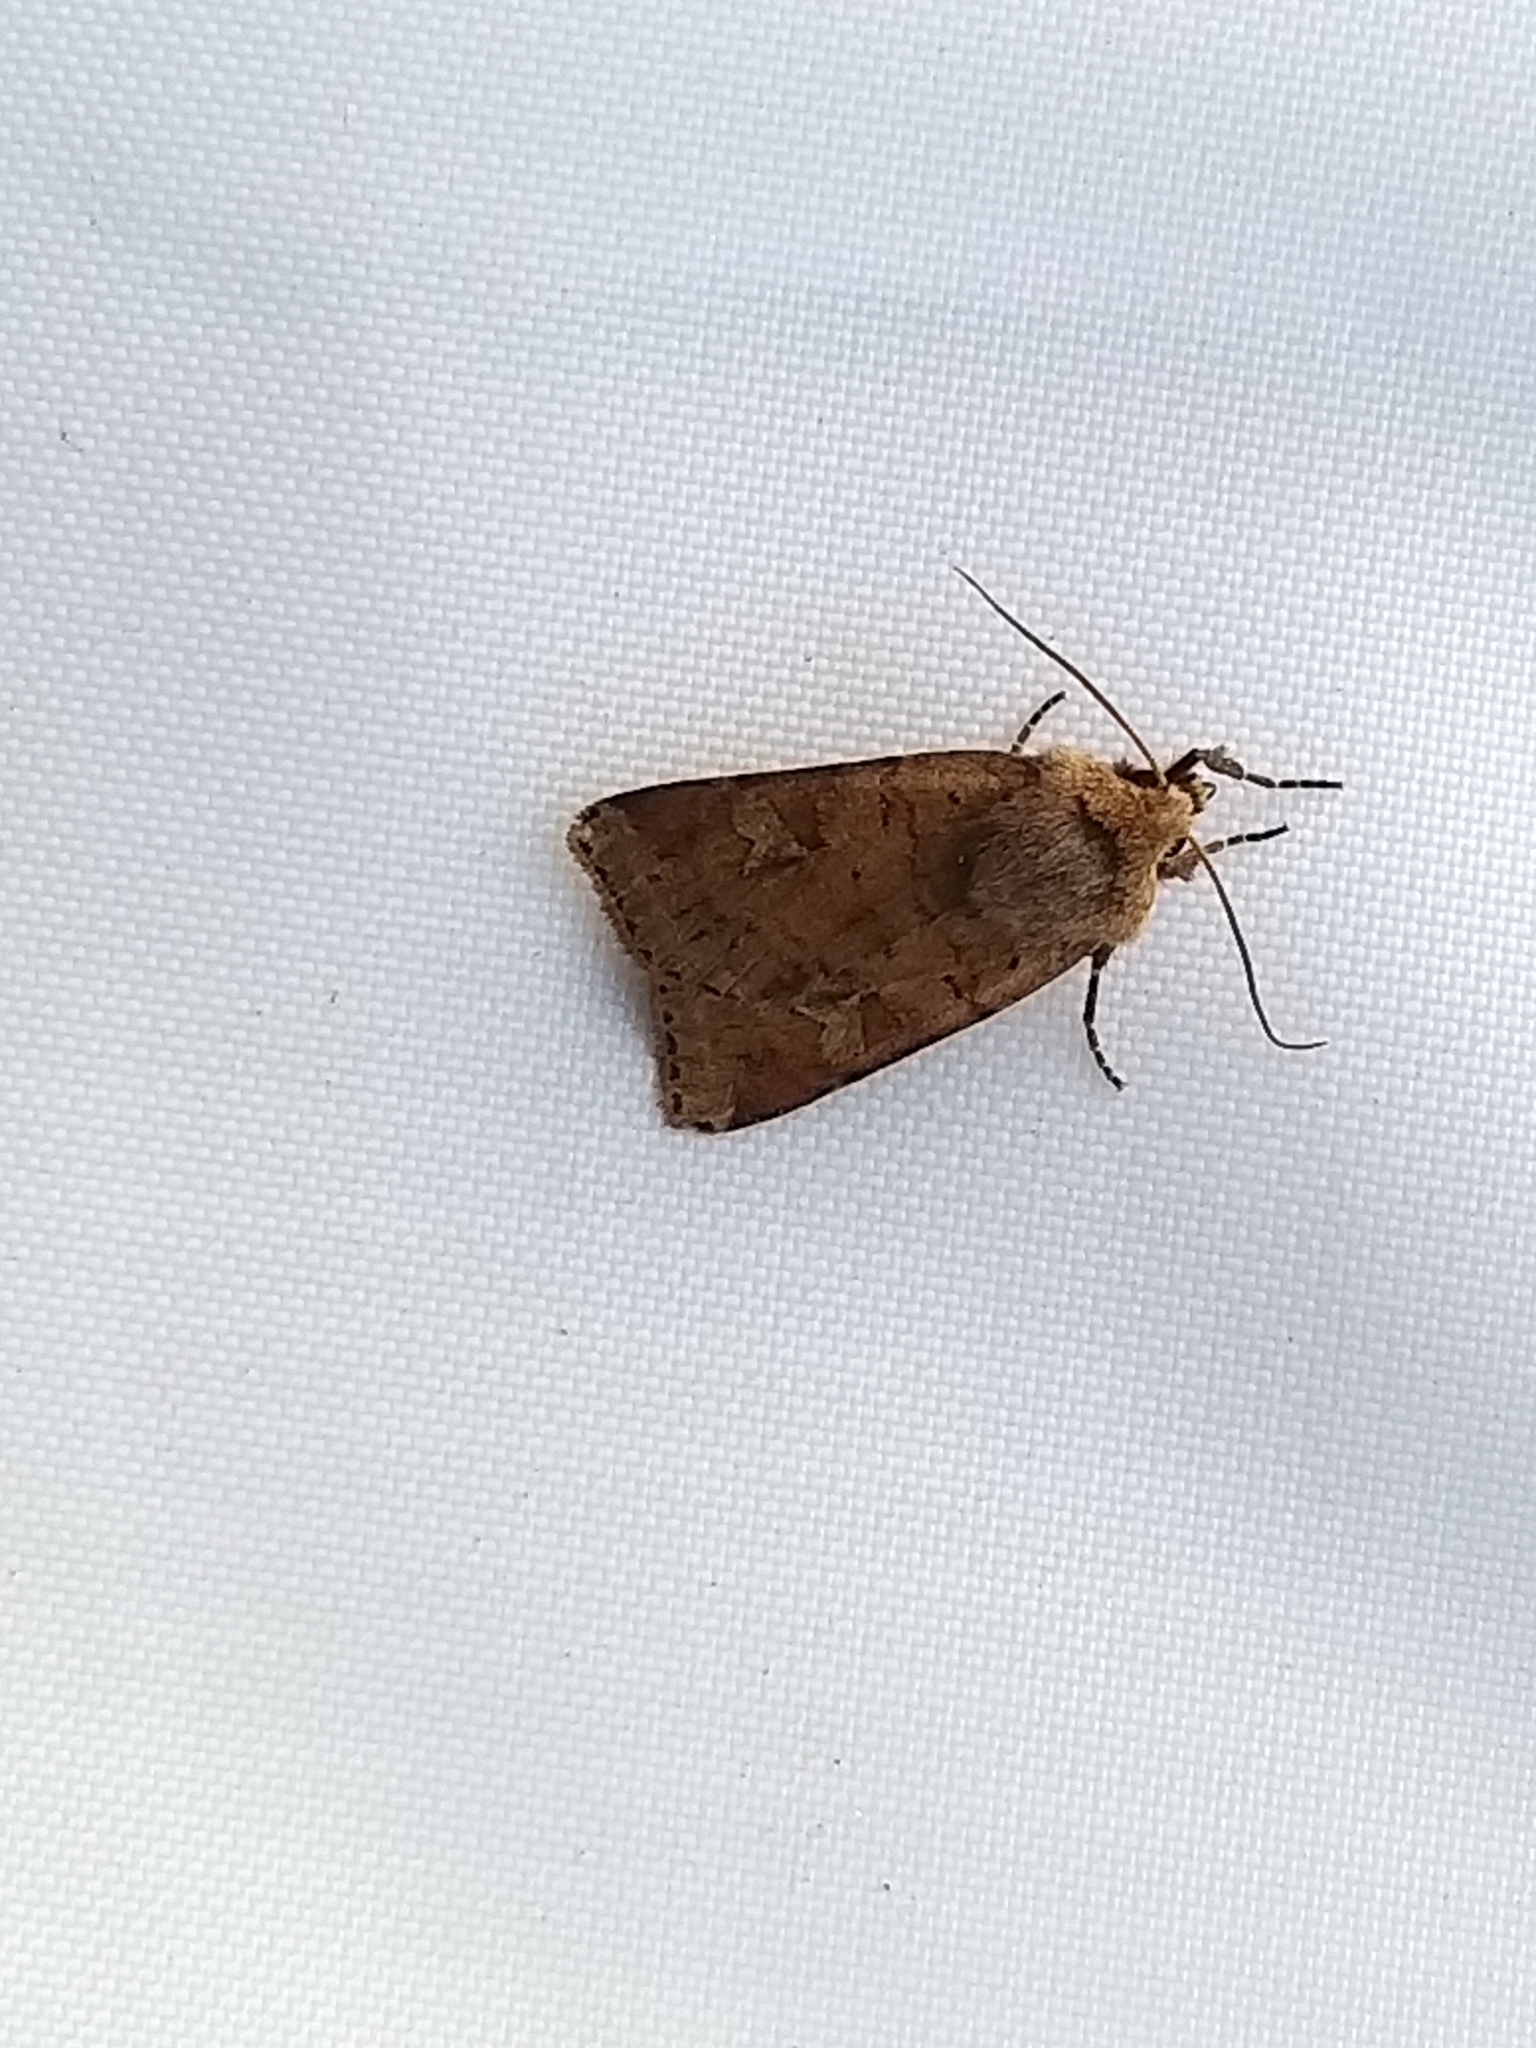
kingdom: Animalia
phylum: Arthropoda
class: Insecta
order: Lepidoptera
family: Noctuidae
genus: Diarsia
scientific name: Diarsia mendica
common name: Ingrailed clay
